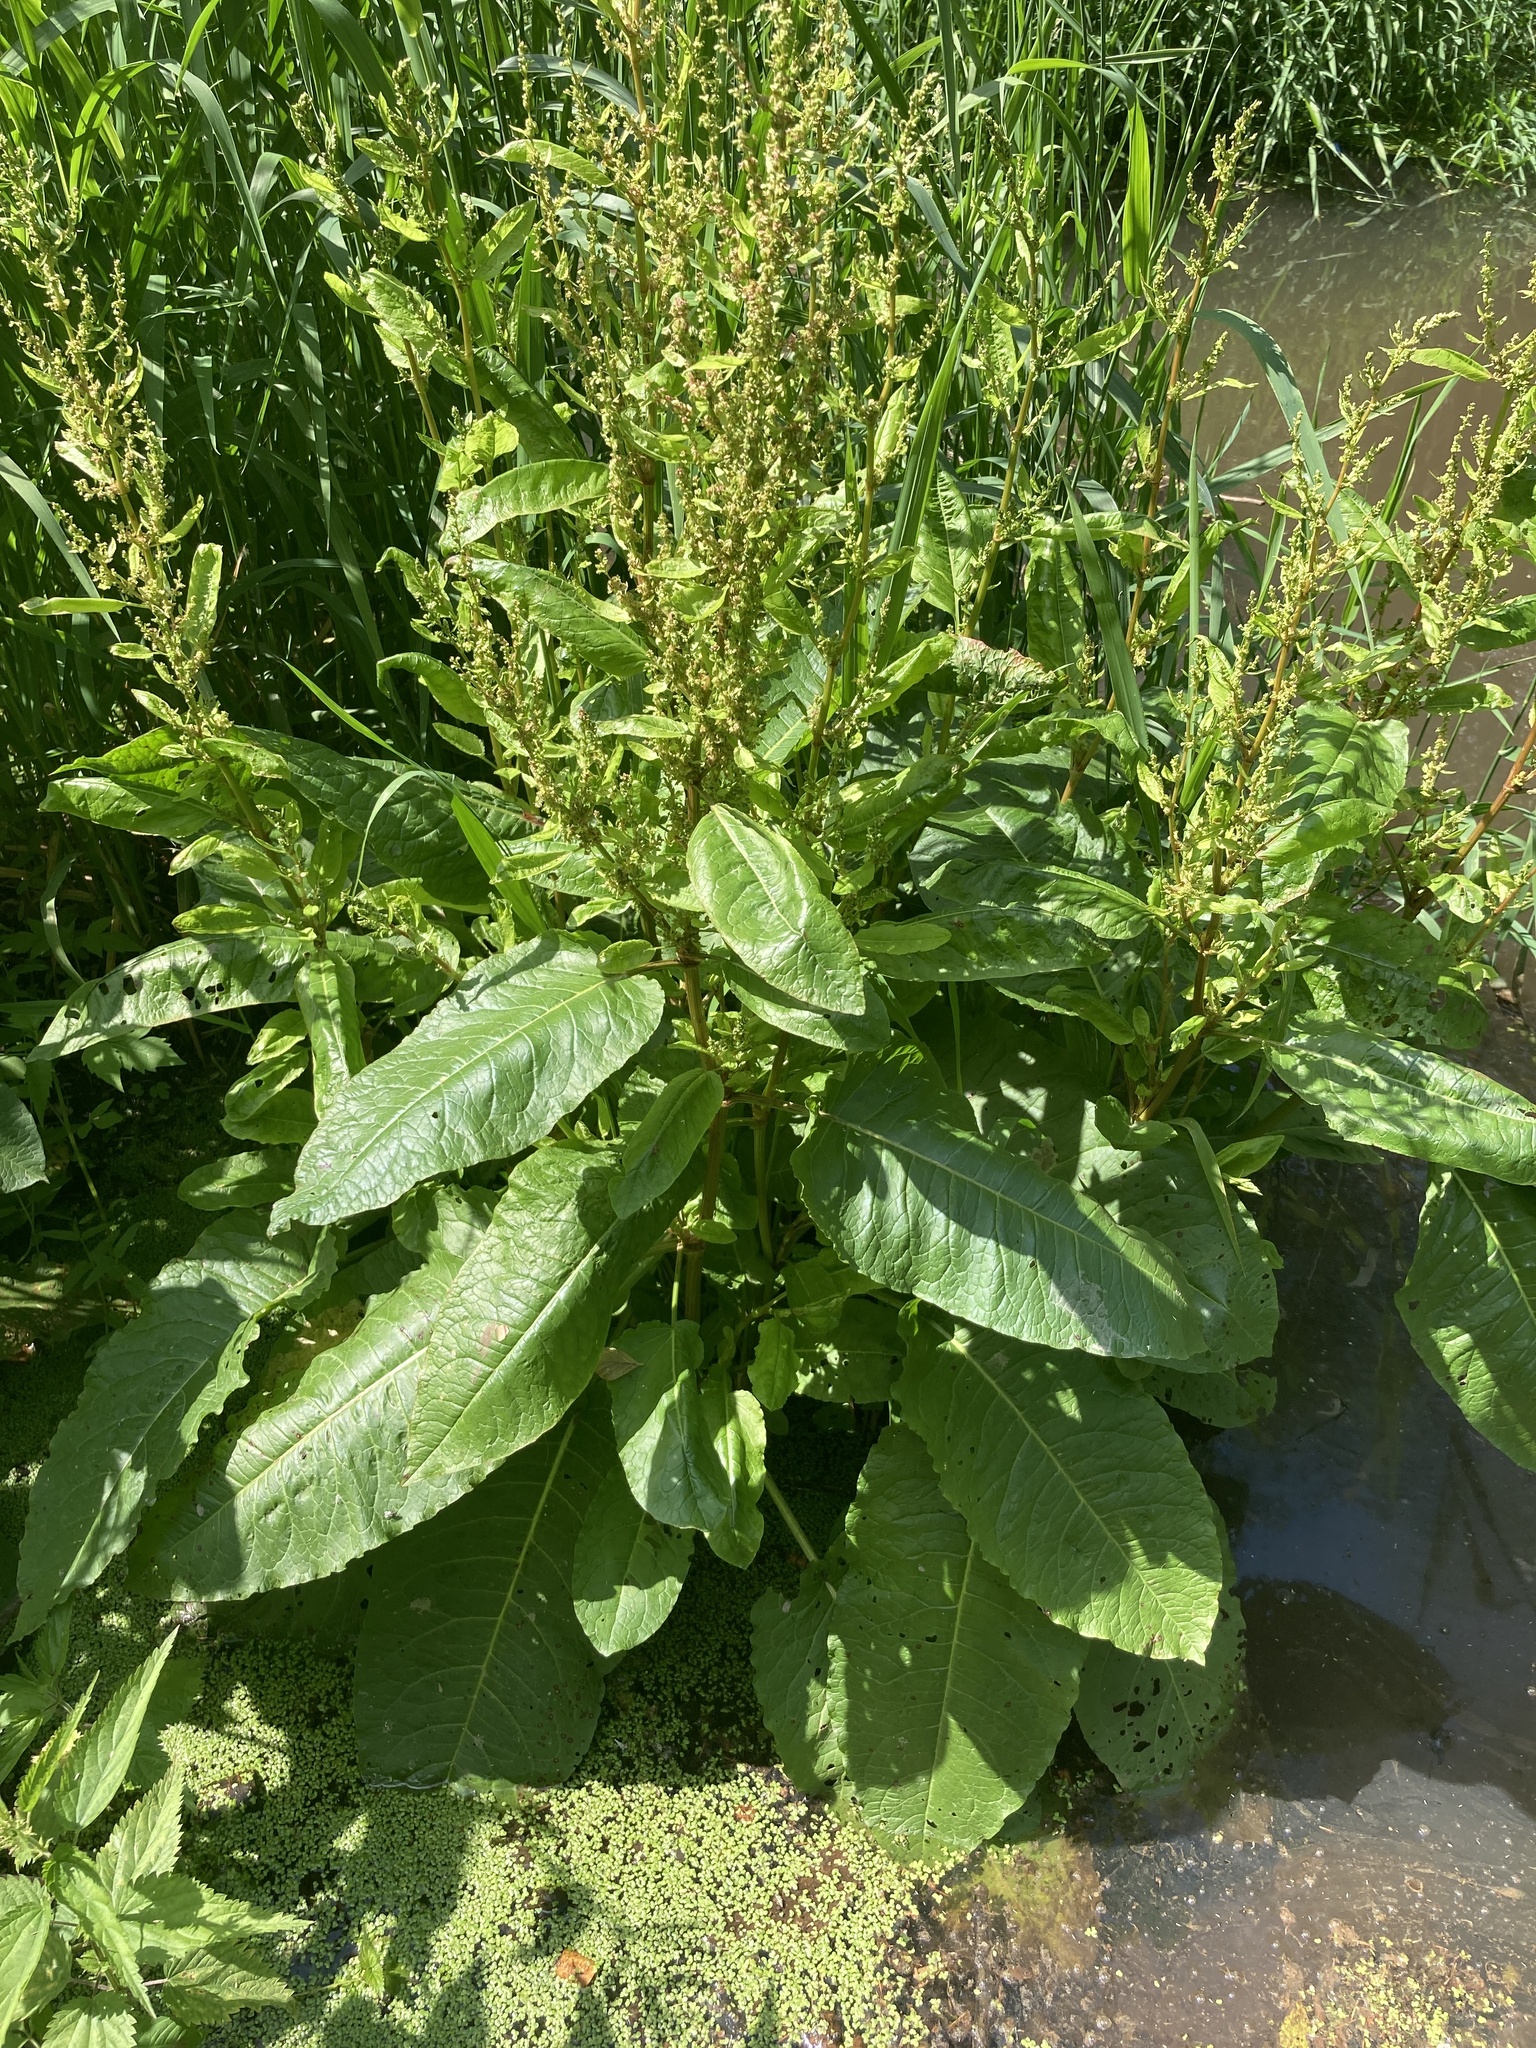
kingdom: Plantae
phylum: Tracheophyta
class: Magnoliopsida
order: Caryophyllales
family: Polygonaceae
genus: Rumex
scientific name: Rumex obtusifolius
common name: Bitter dock
